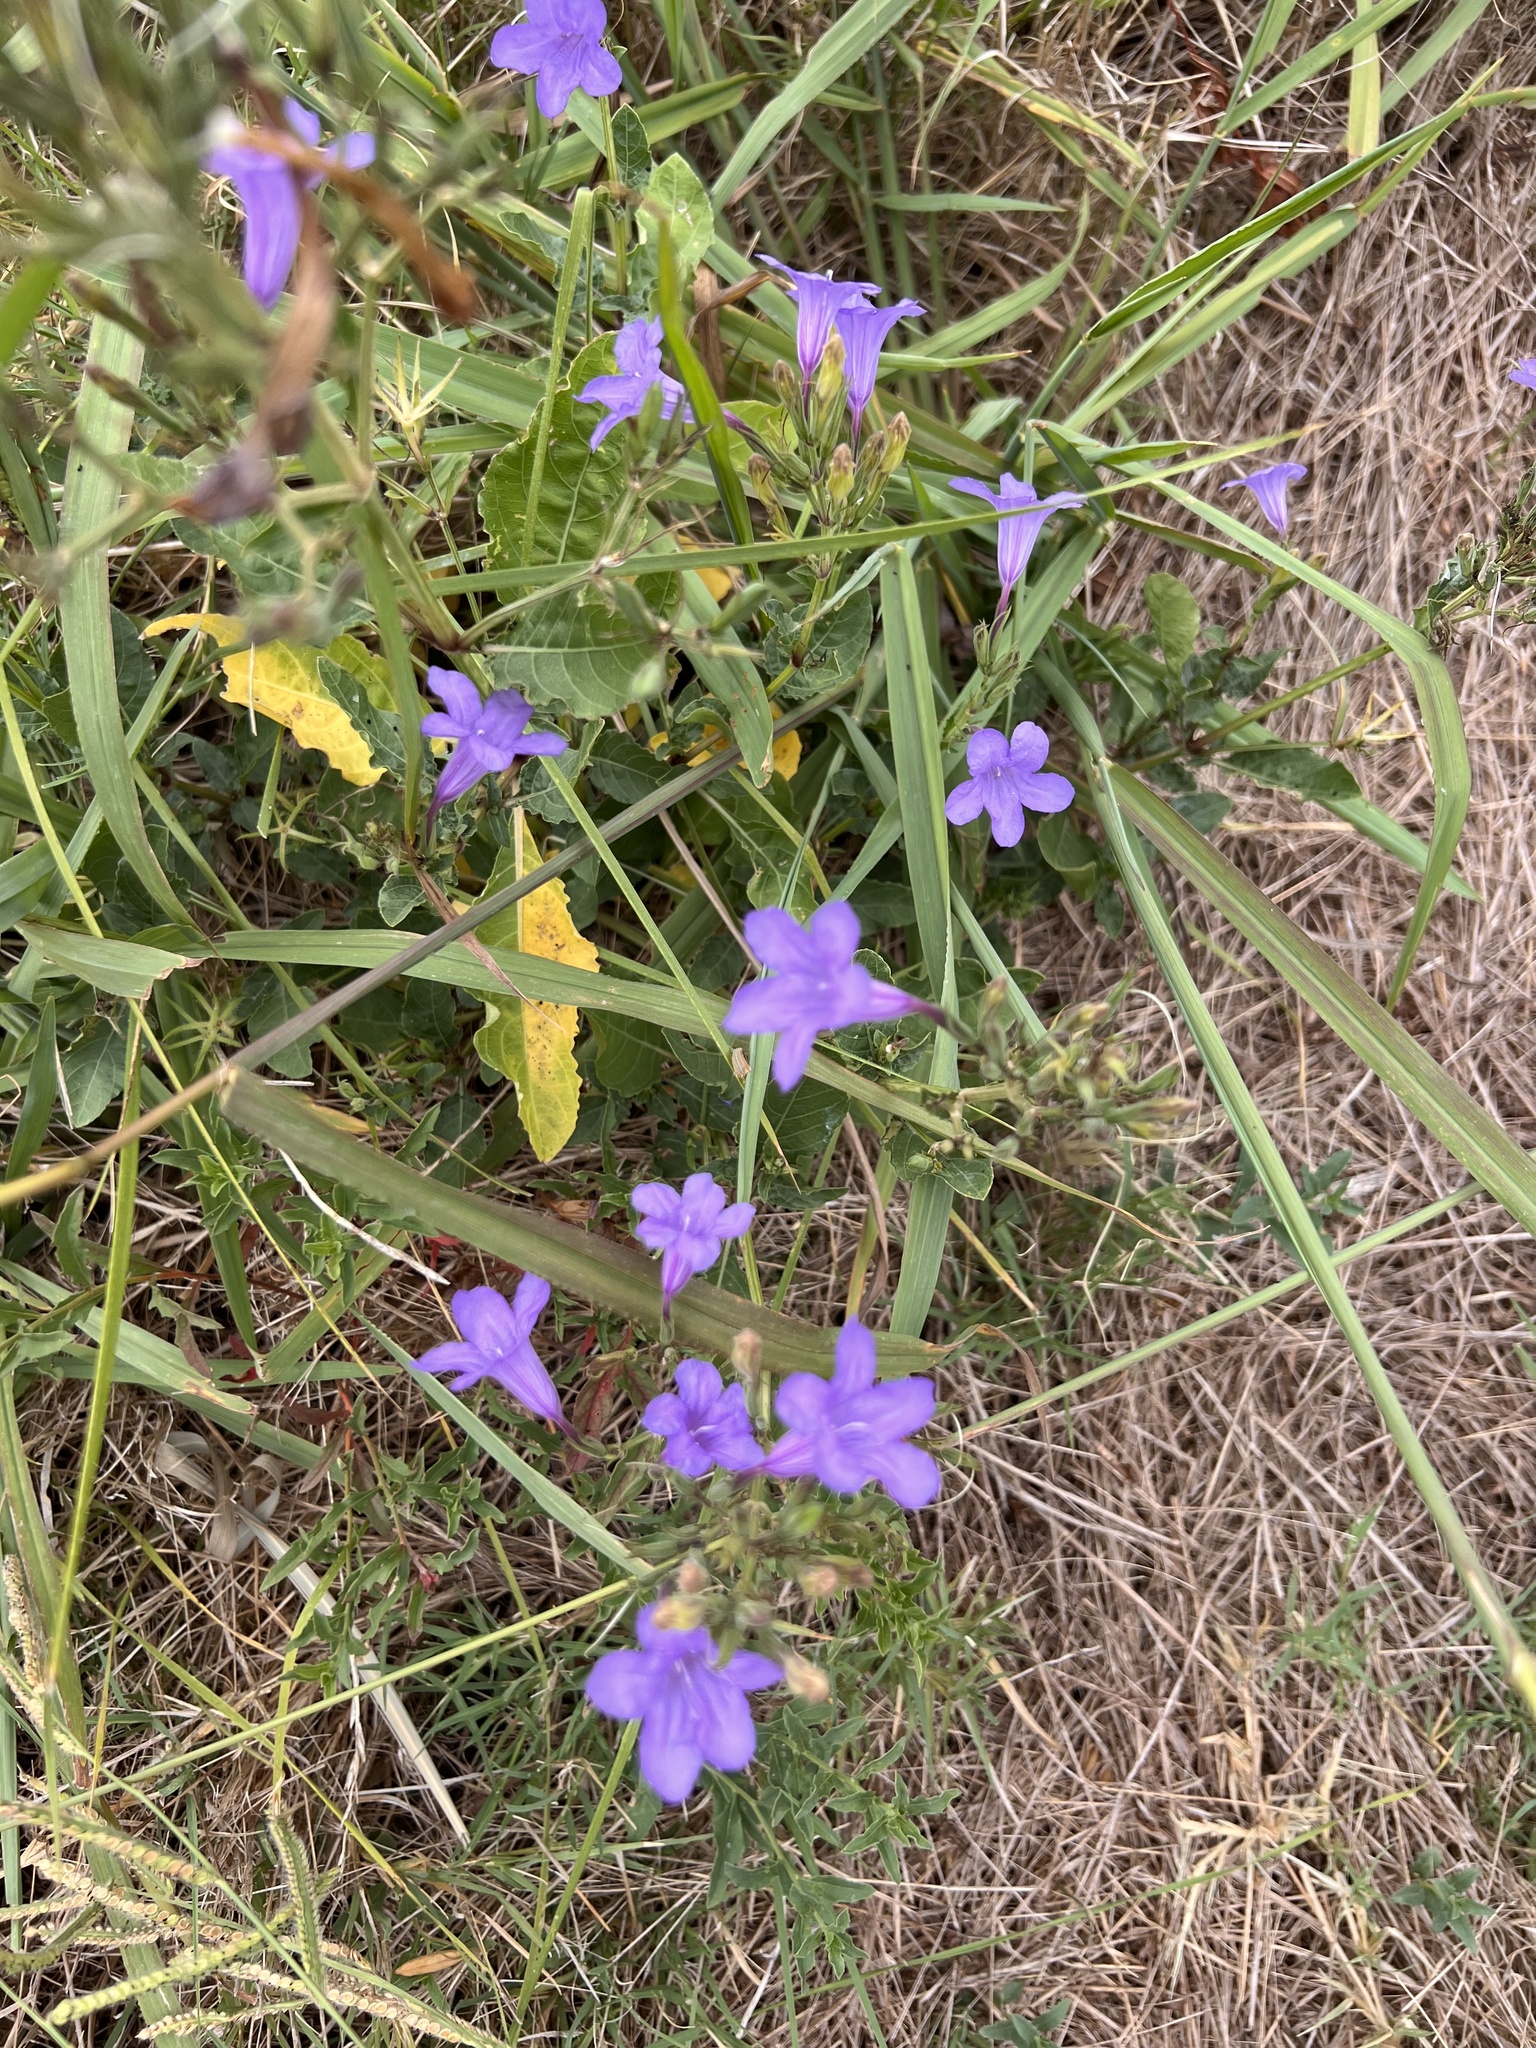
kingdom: Plantae
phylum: Tracheophyta
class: Magnoliopsida
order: Lamiales
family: Acanthaceae
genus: Ruellia
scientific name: Ruellia ciliatiflora
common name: Hairyflower wild petunia
